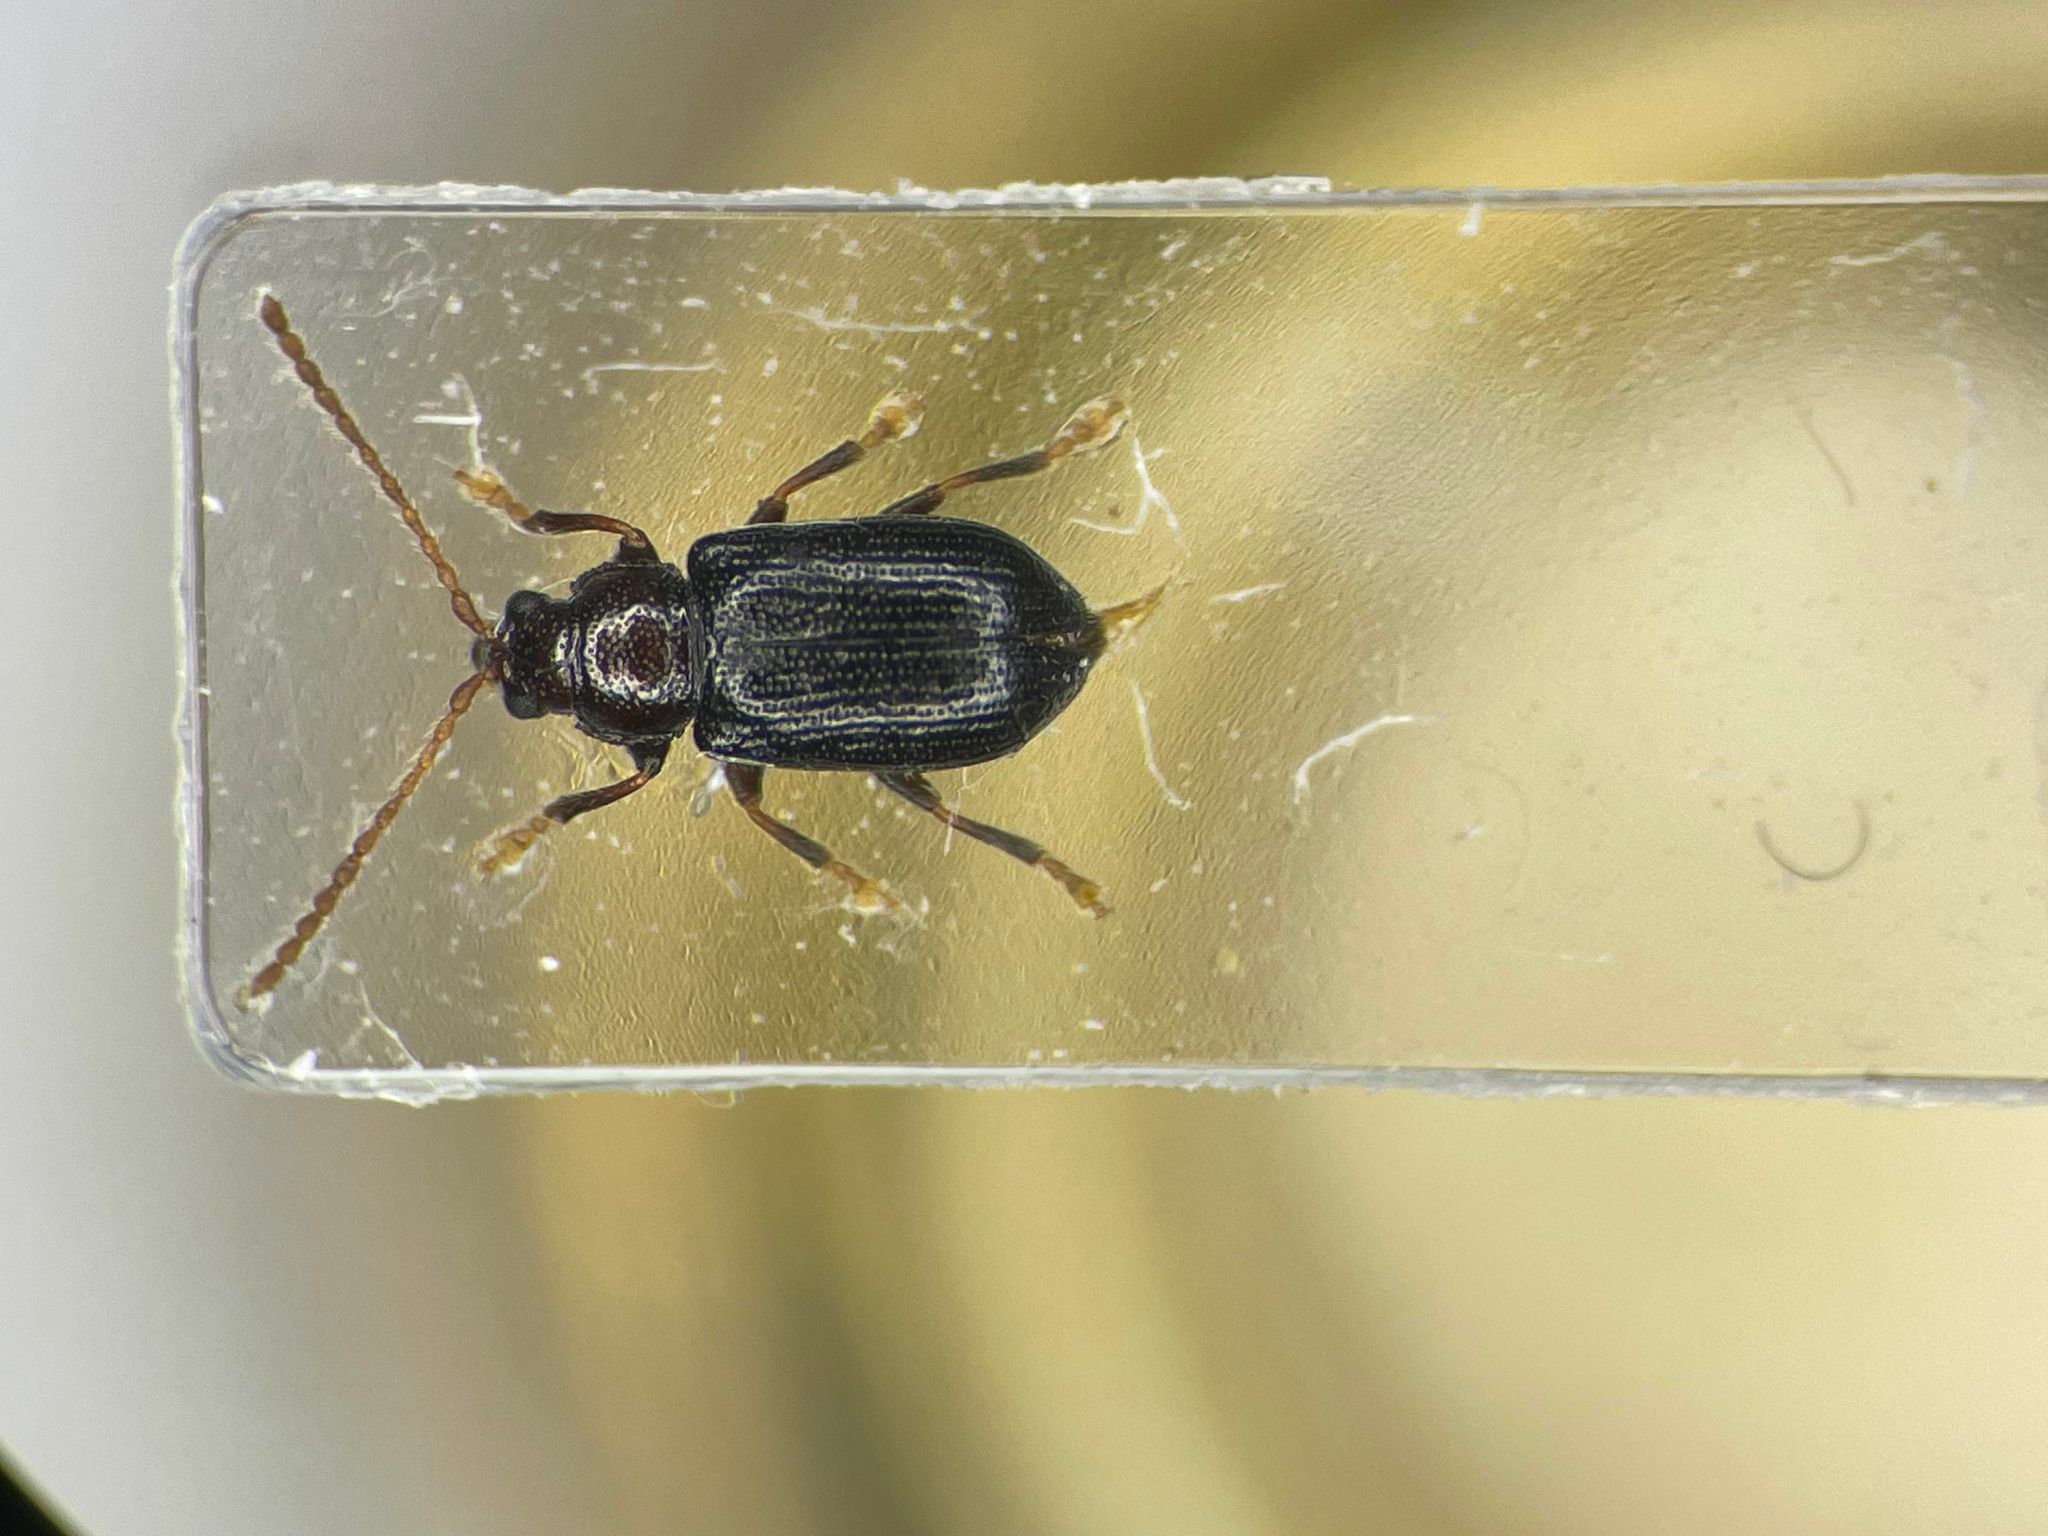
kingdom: Animalia
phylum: Arthropoda
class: Insecta
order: Coleoptera
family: Chrysomelidae
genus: Aulacothorax
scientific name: Aulacothorax
